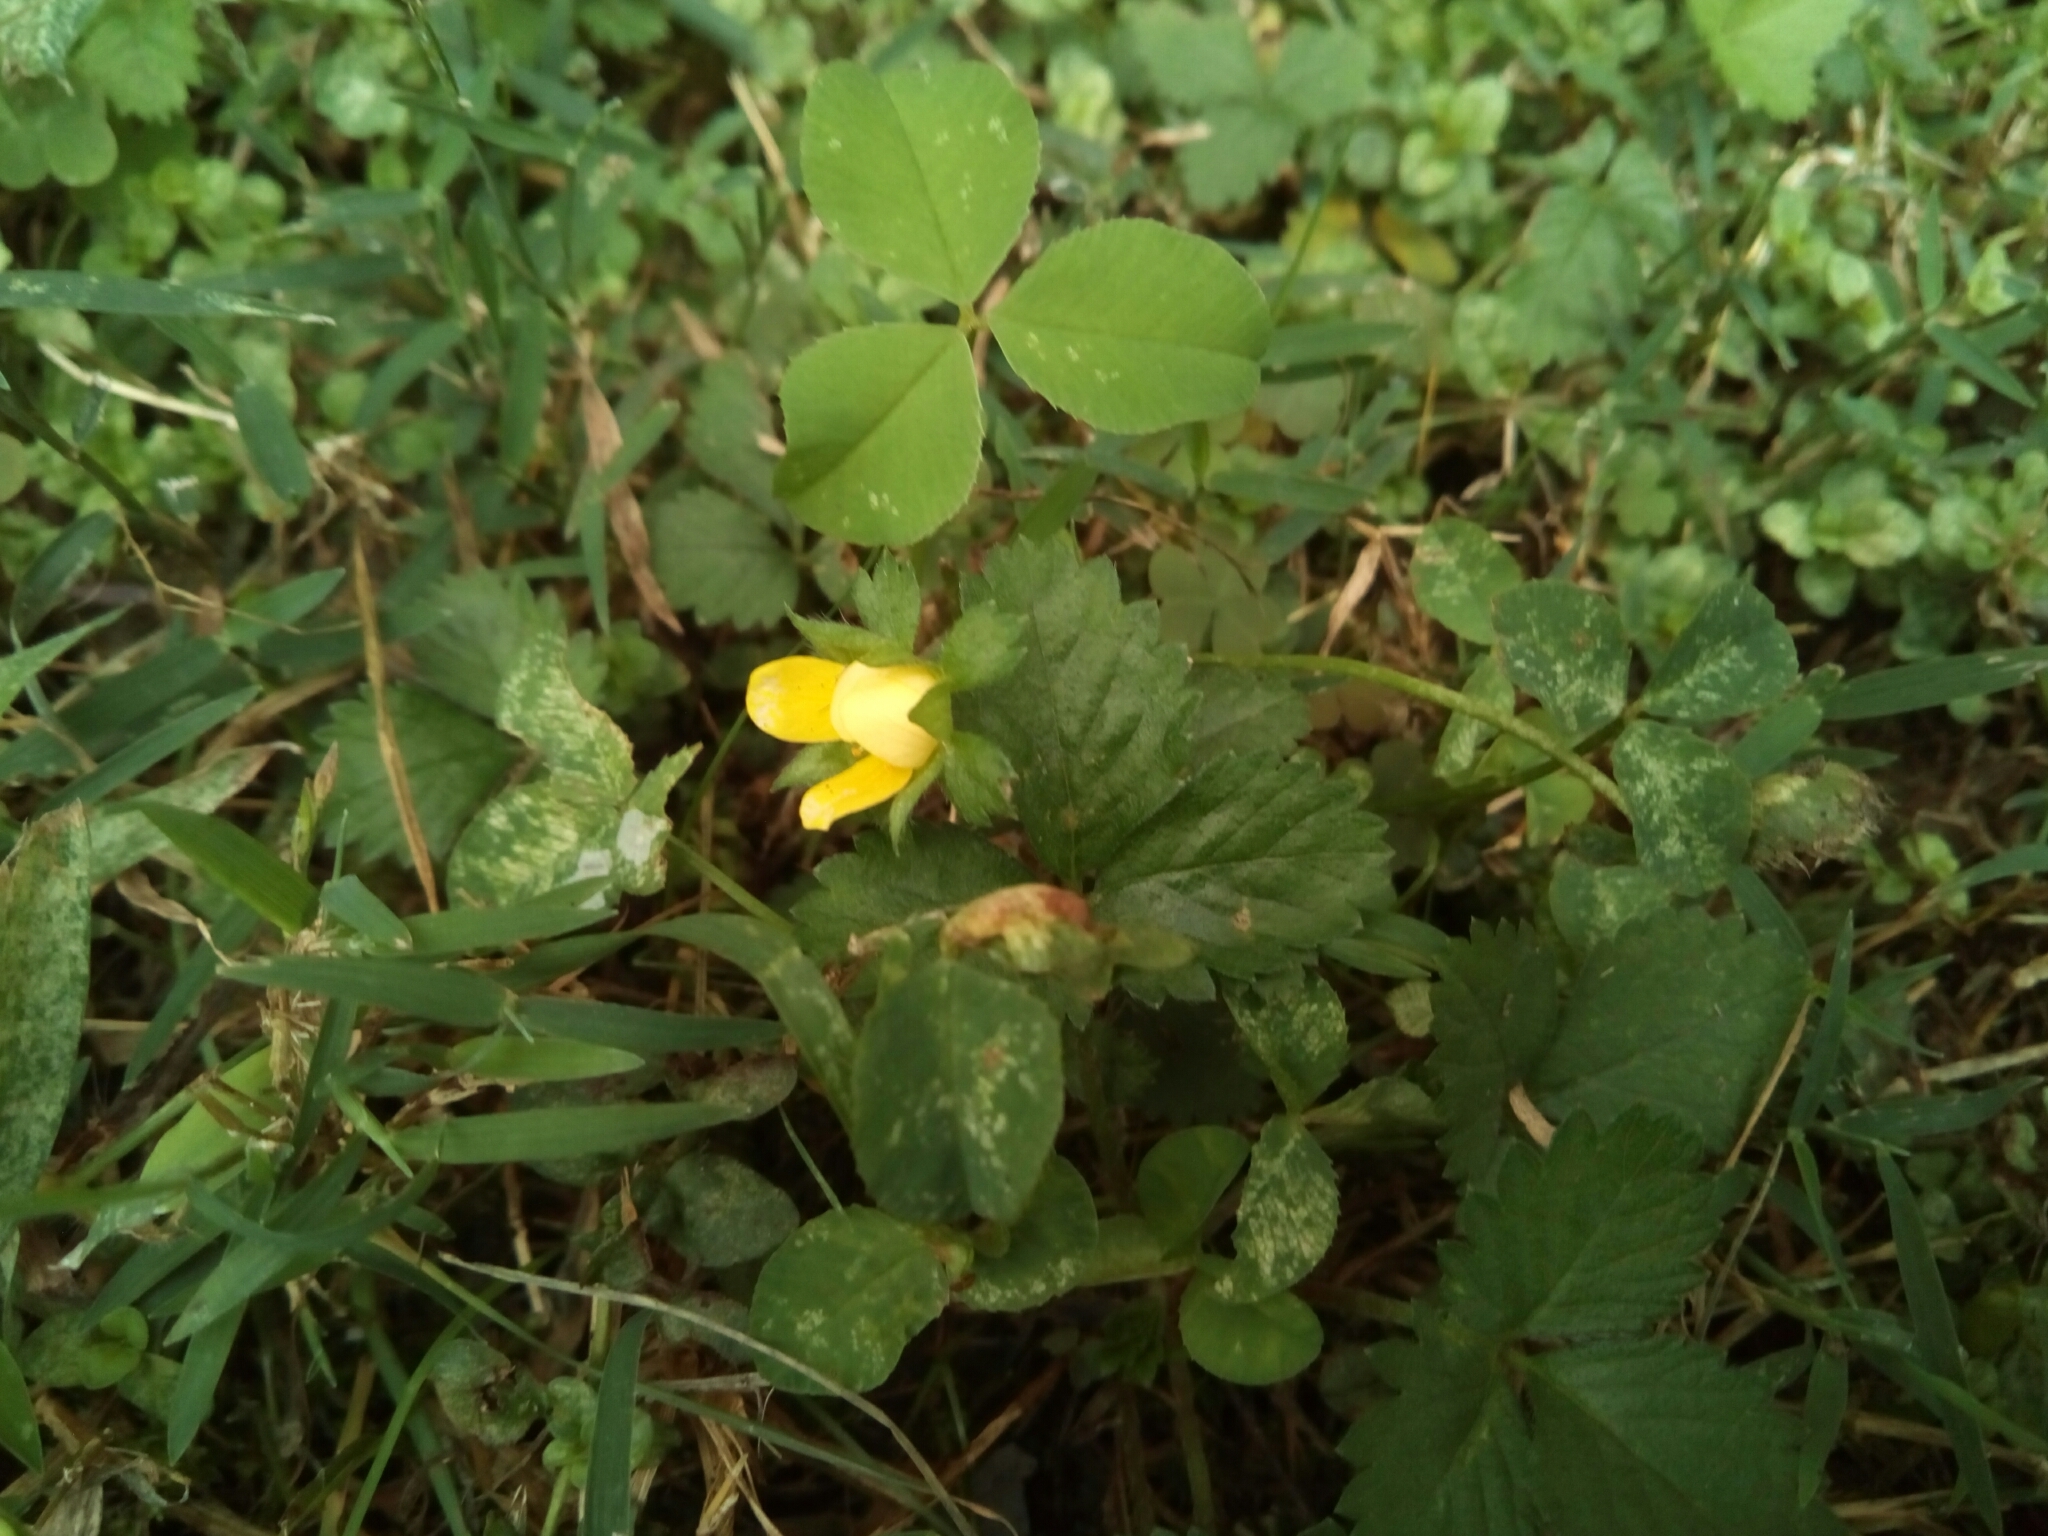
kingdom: Plantae
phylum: Tracheophyta
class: Magnoliopsida
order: Rosales
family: Rosaceae
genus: Potentilla
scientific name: Potentilla indica
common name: Yellow-flowered strawberry
